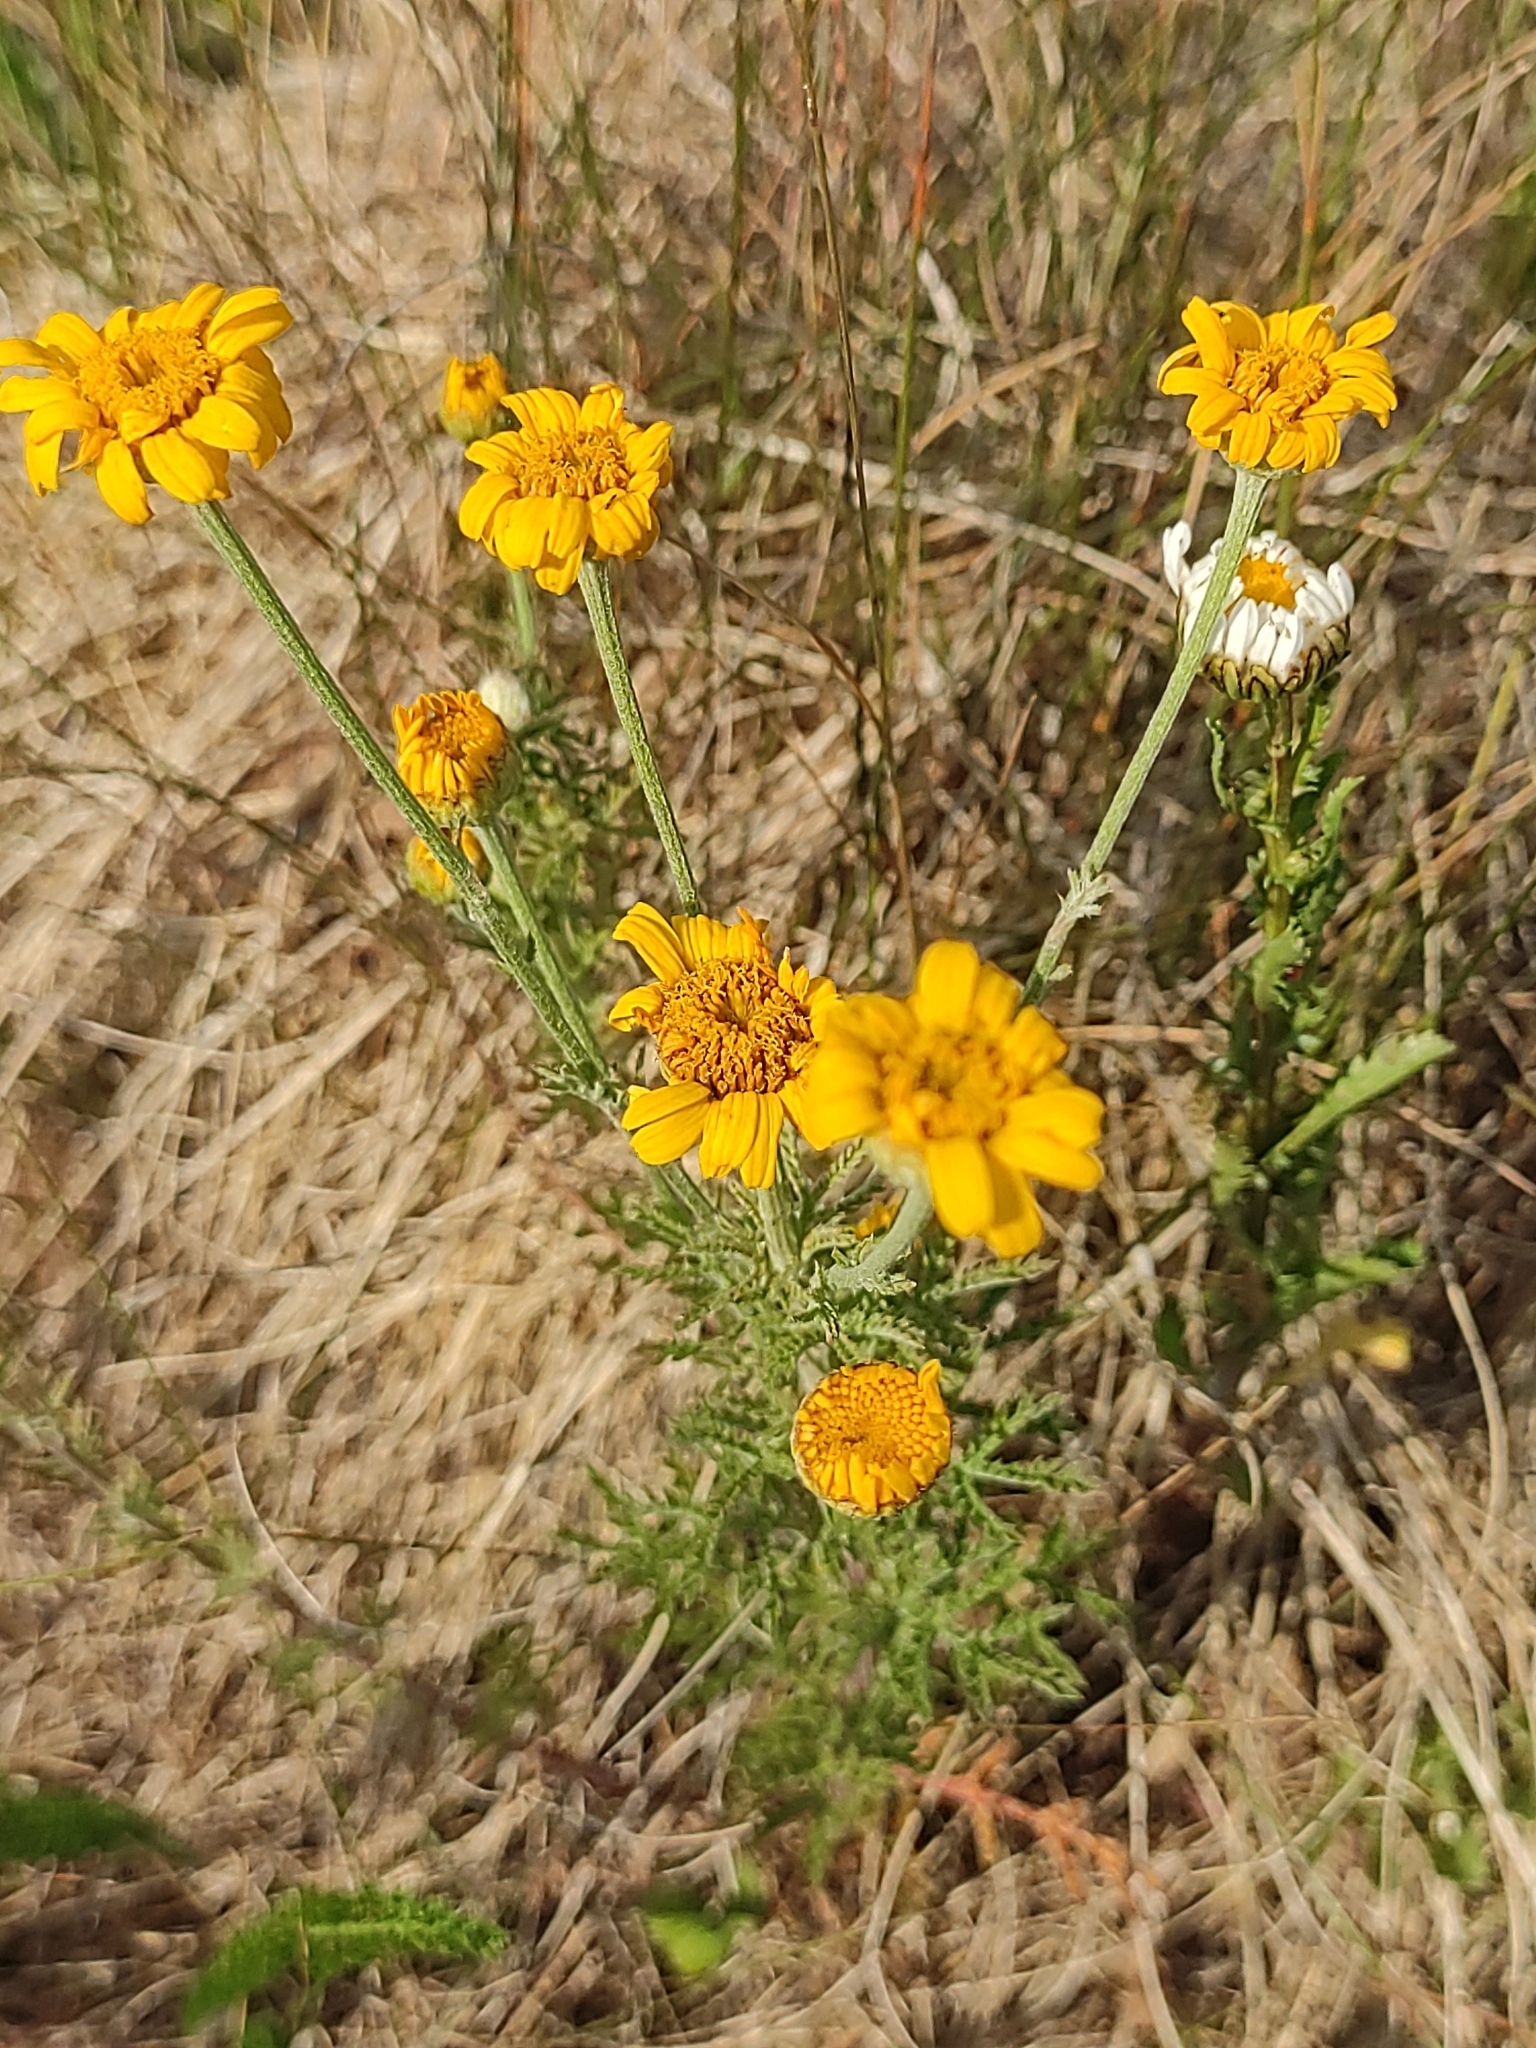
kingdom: Plantae
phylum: Tracheophyta
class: Magnoliopsida
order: Asterales
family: Asteraceae
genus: Cota
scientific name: Cota tinctoria
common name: Golden chamomile
